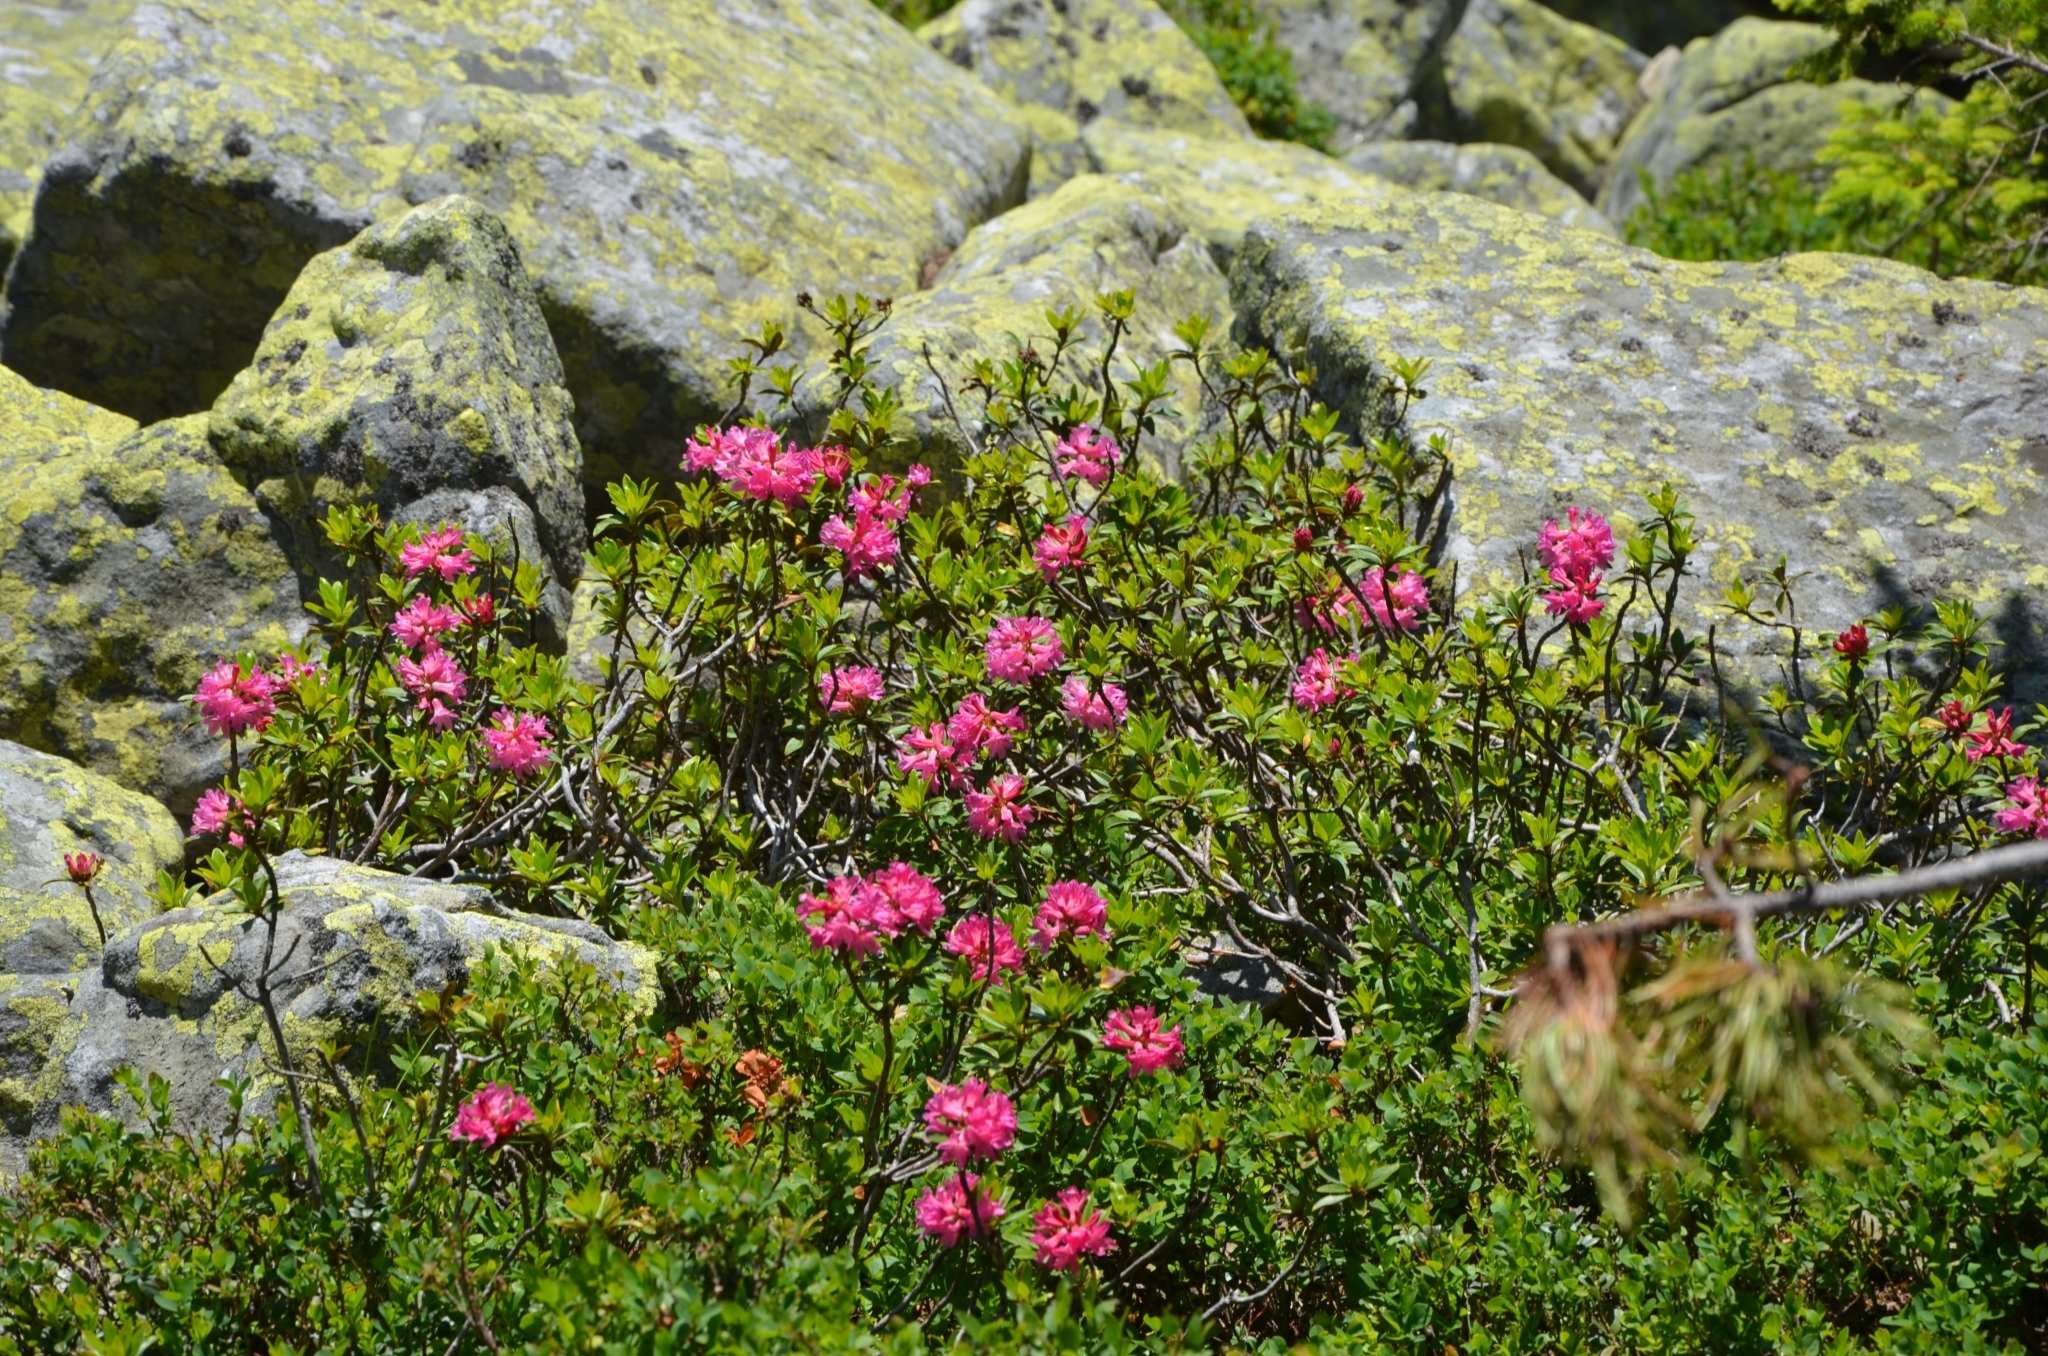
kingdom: Plantae
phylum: Tracheophyta
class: Magnoliopsida
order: Ericales
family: Ericaceae
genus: Rhododendron
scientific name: Rhododendron ferrugineum
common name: Alpenrose
